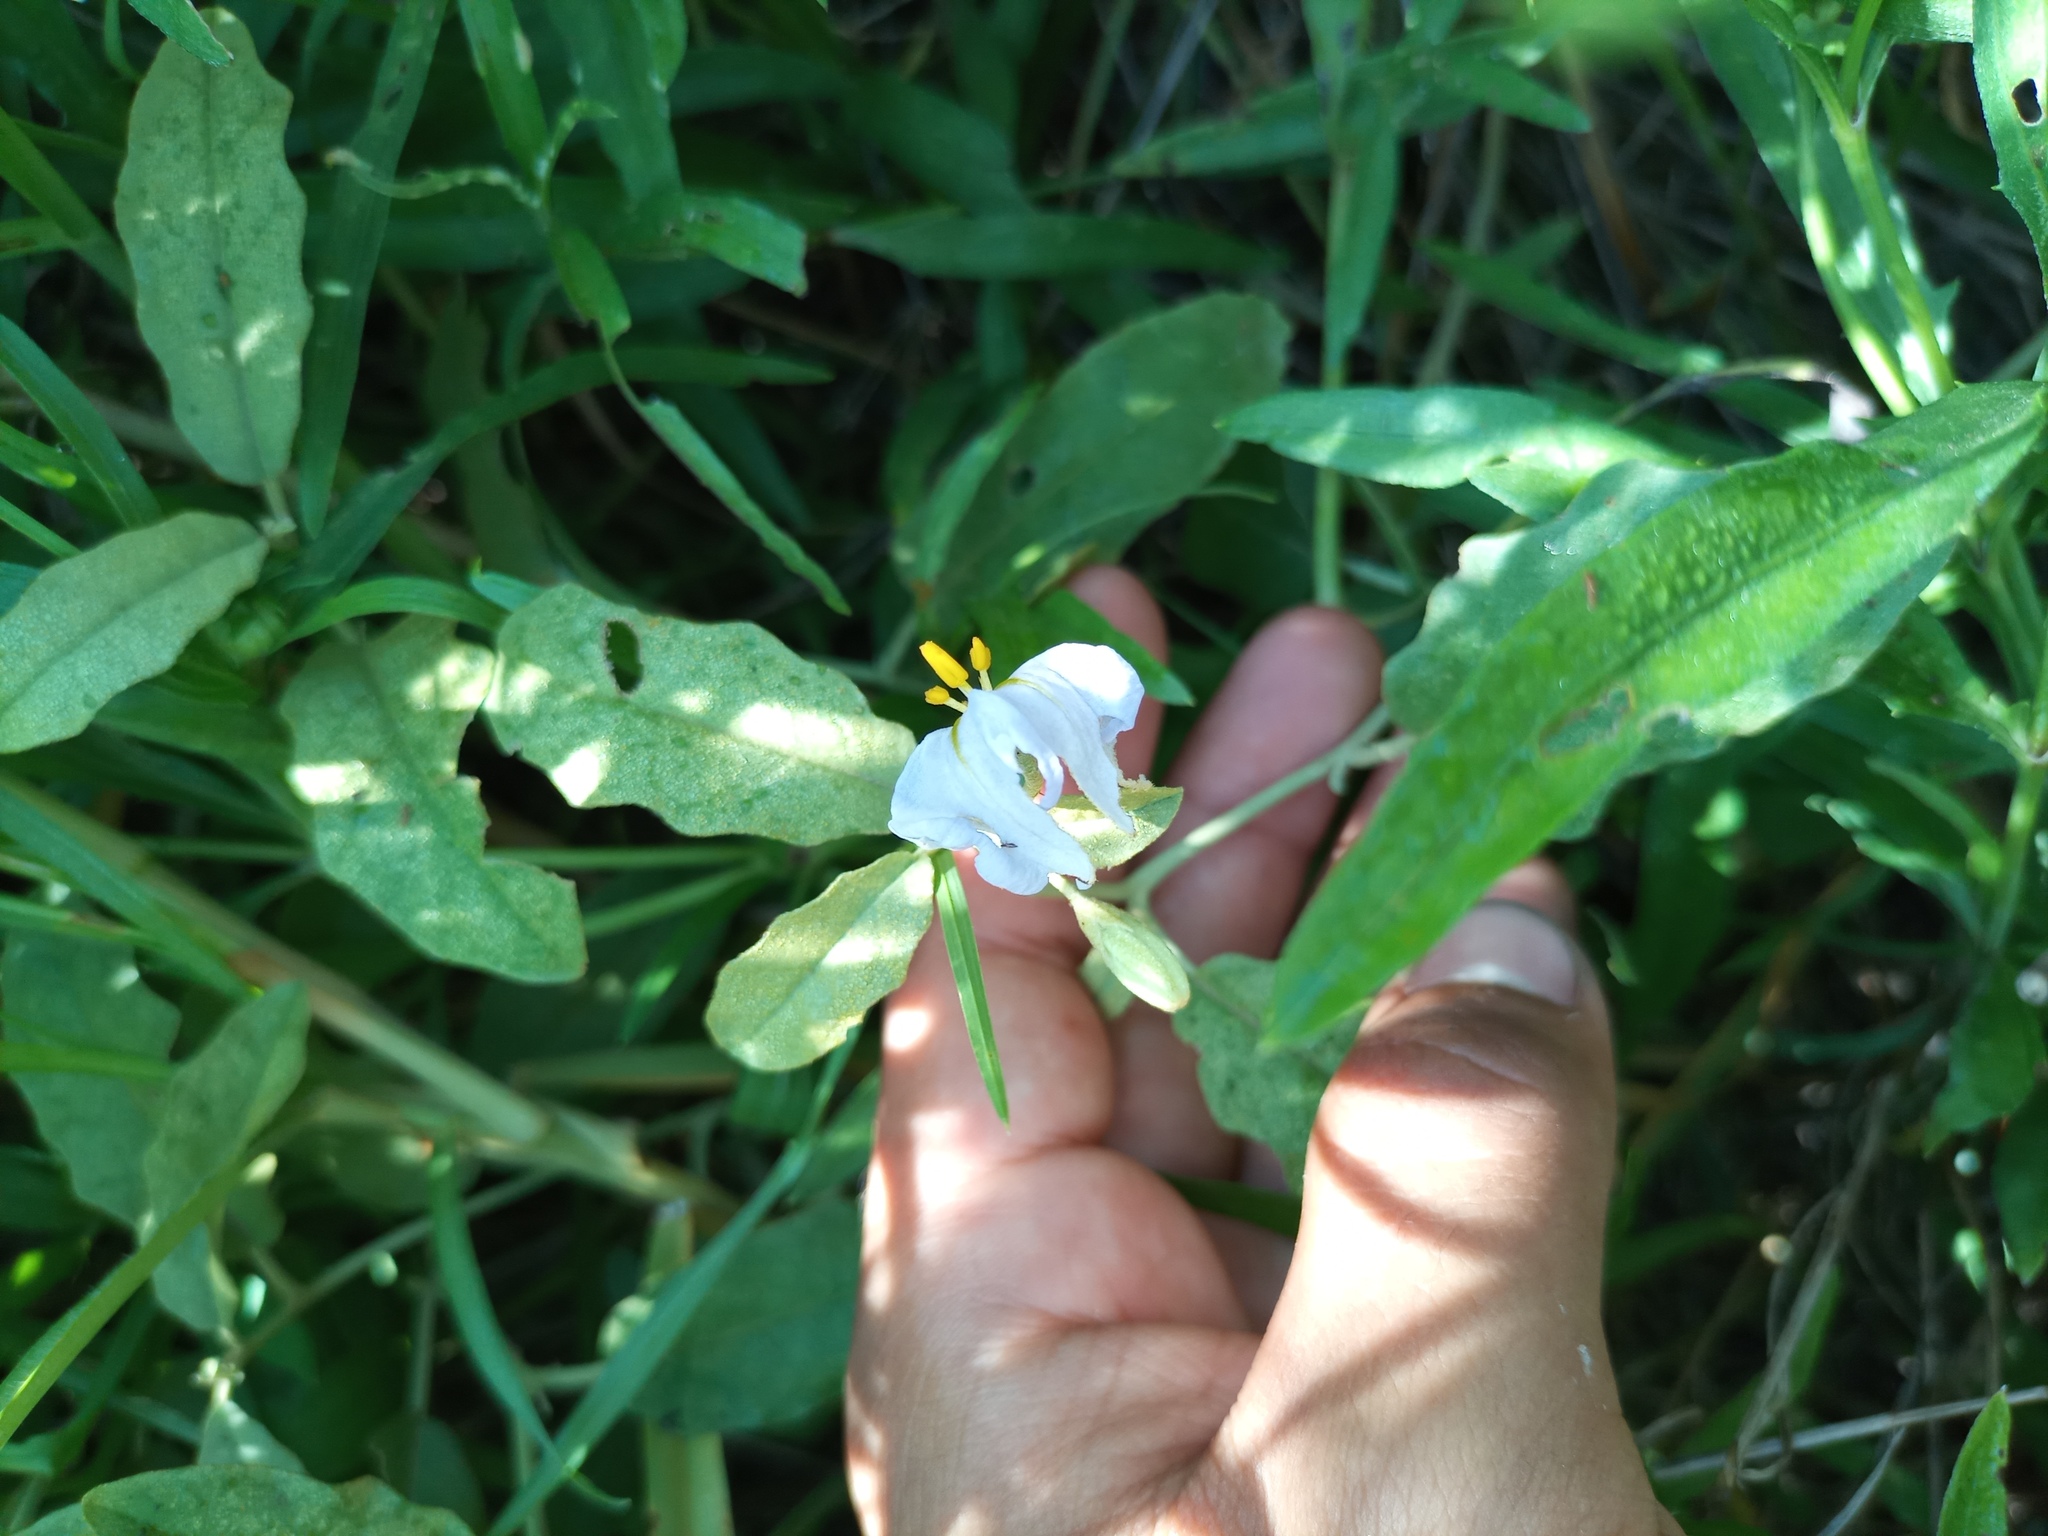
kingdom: Plantae
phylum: Tracheophyta
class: Magnoliopsida
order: Solanales
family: Solanaceae
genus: Solanum
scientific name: Solanum elaeagnifolium
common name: Silverleaf nightshade
